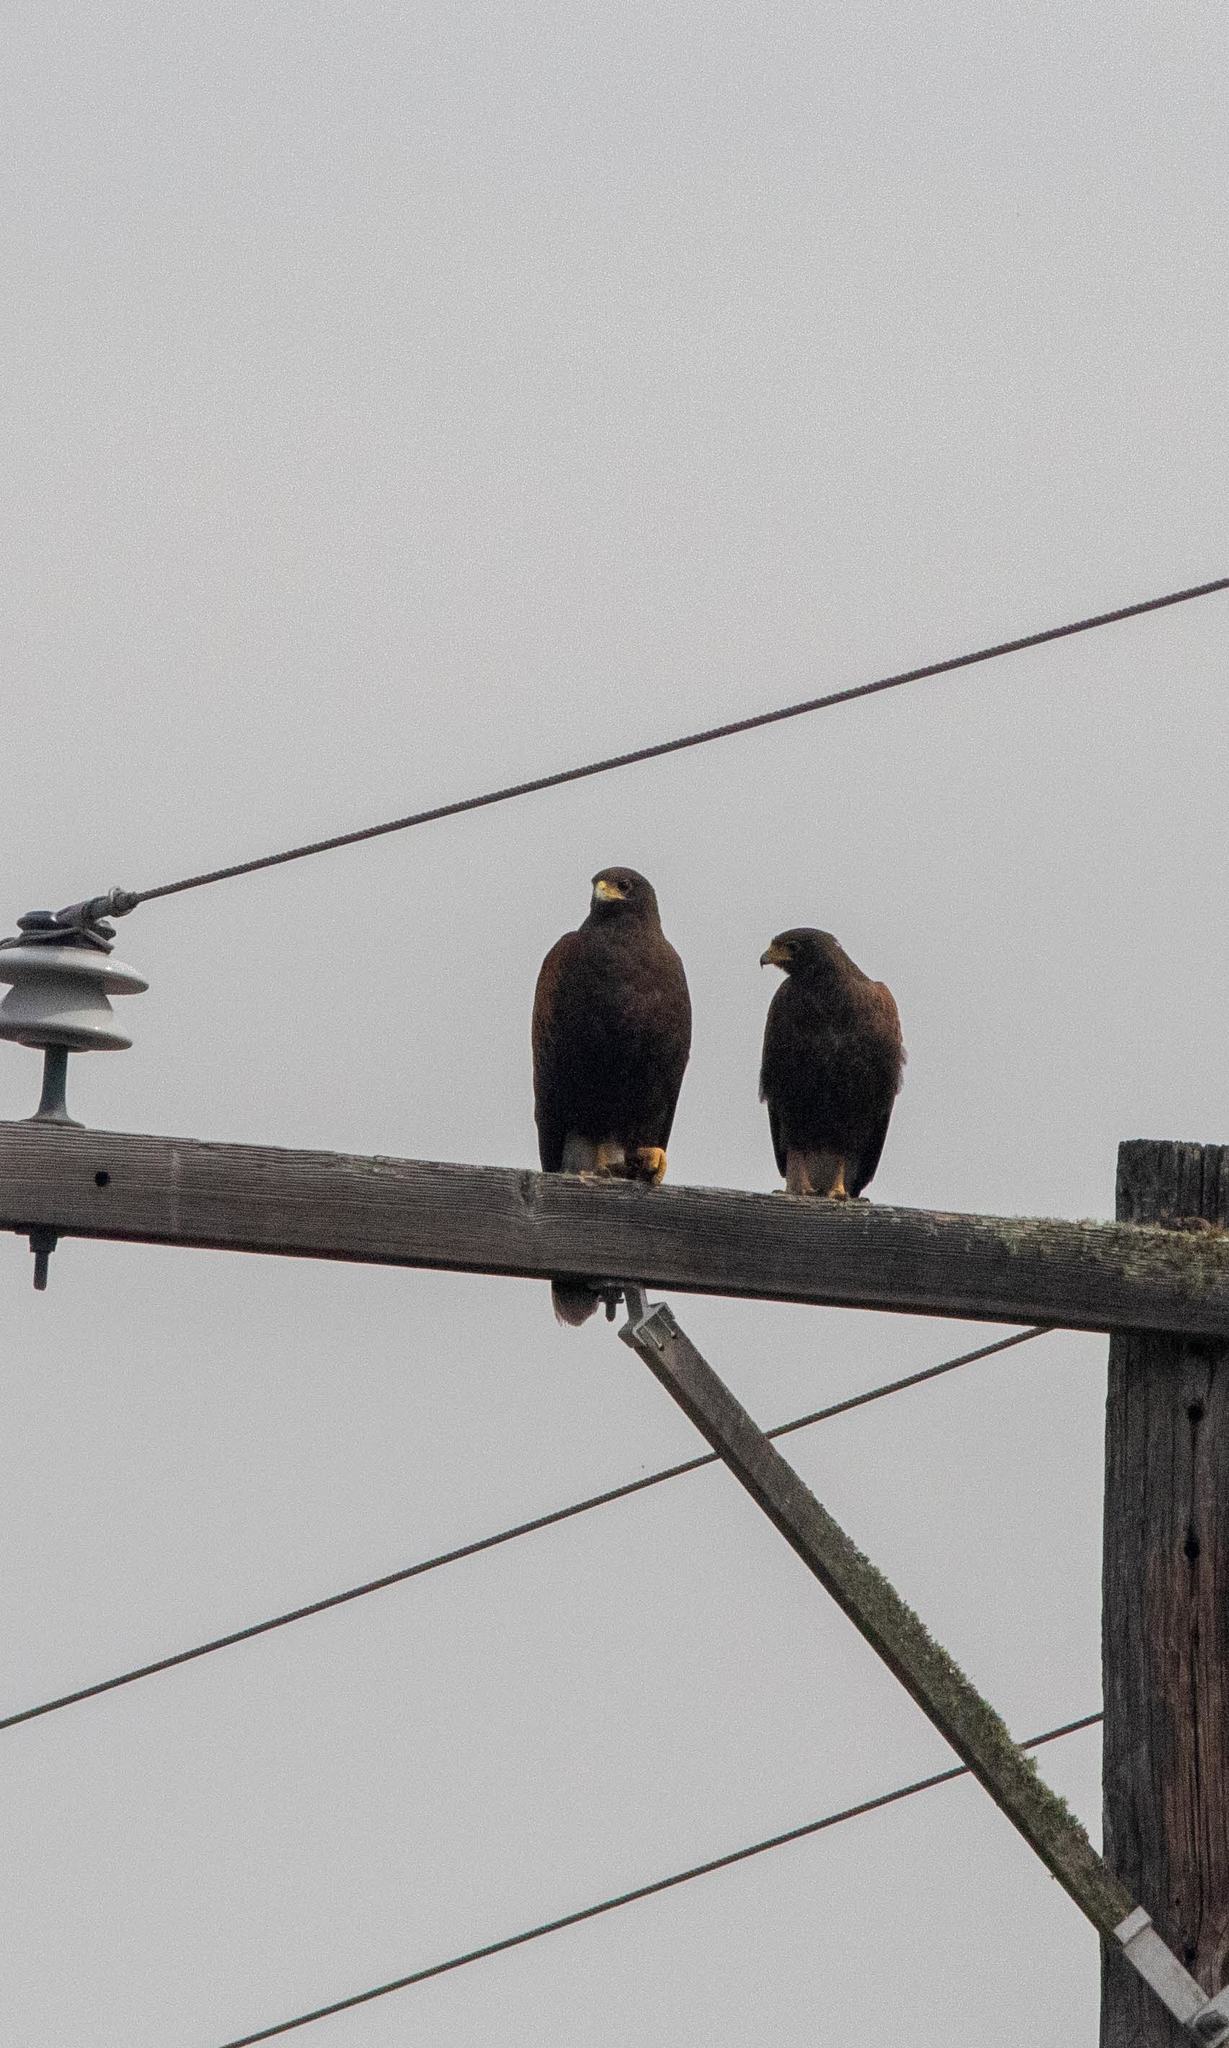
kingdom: Animalia
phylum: Chordata
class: Aves
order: Accipitriformes
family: Accipitridae
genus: Parabuteo
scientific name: Parabuteo unicinctus
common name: Harris's hawk
